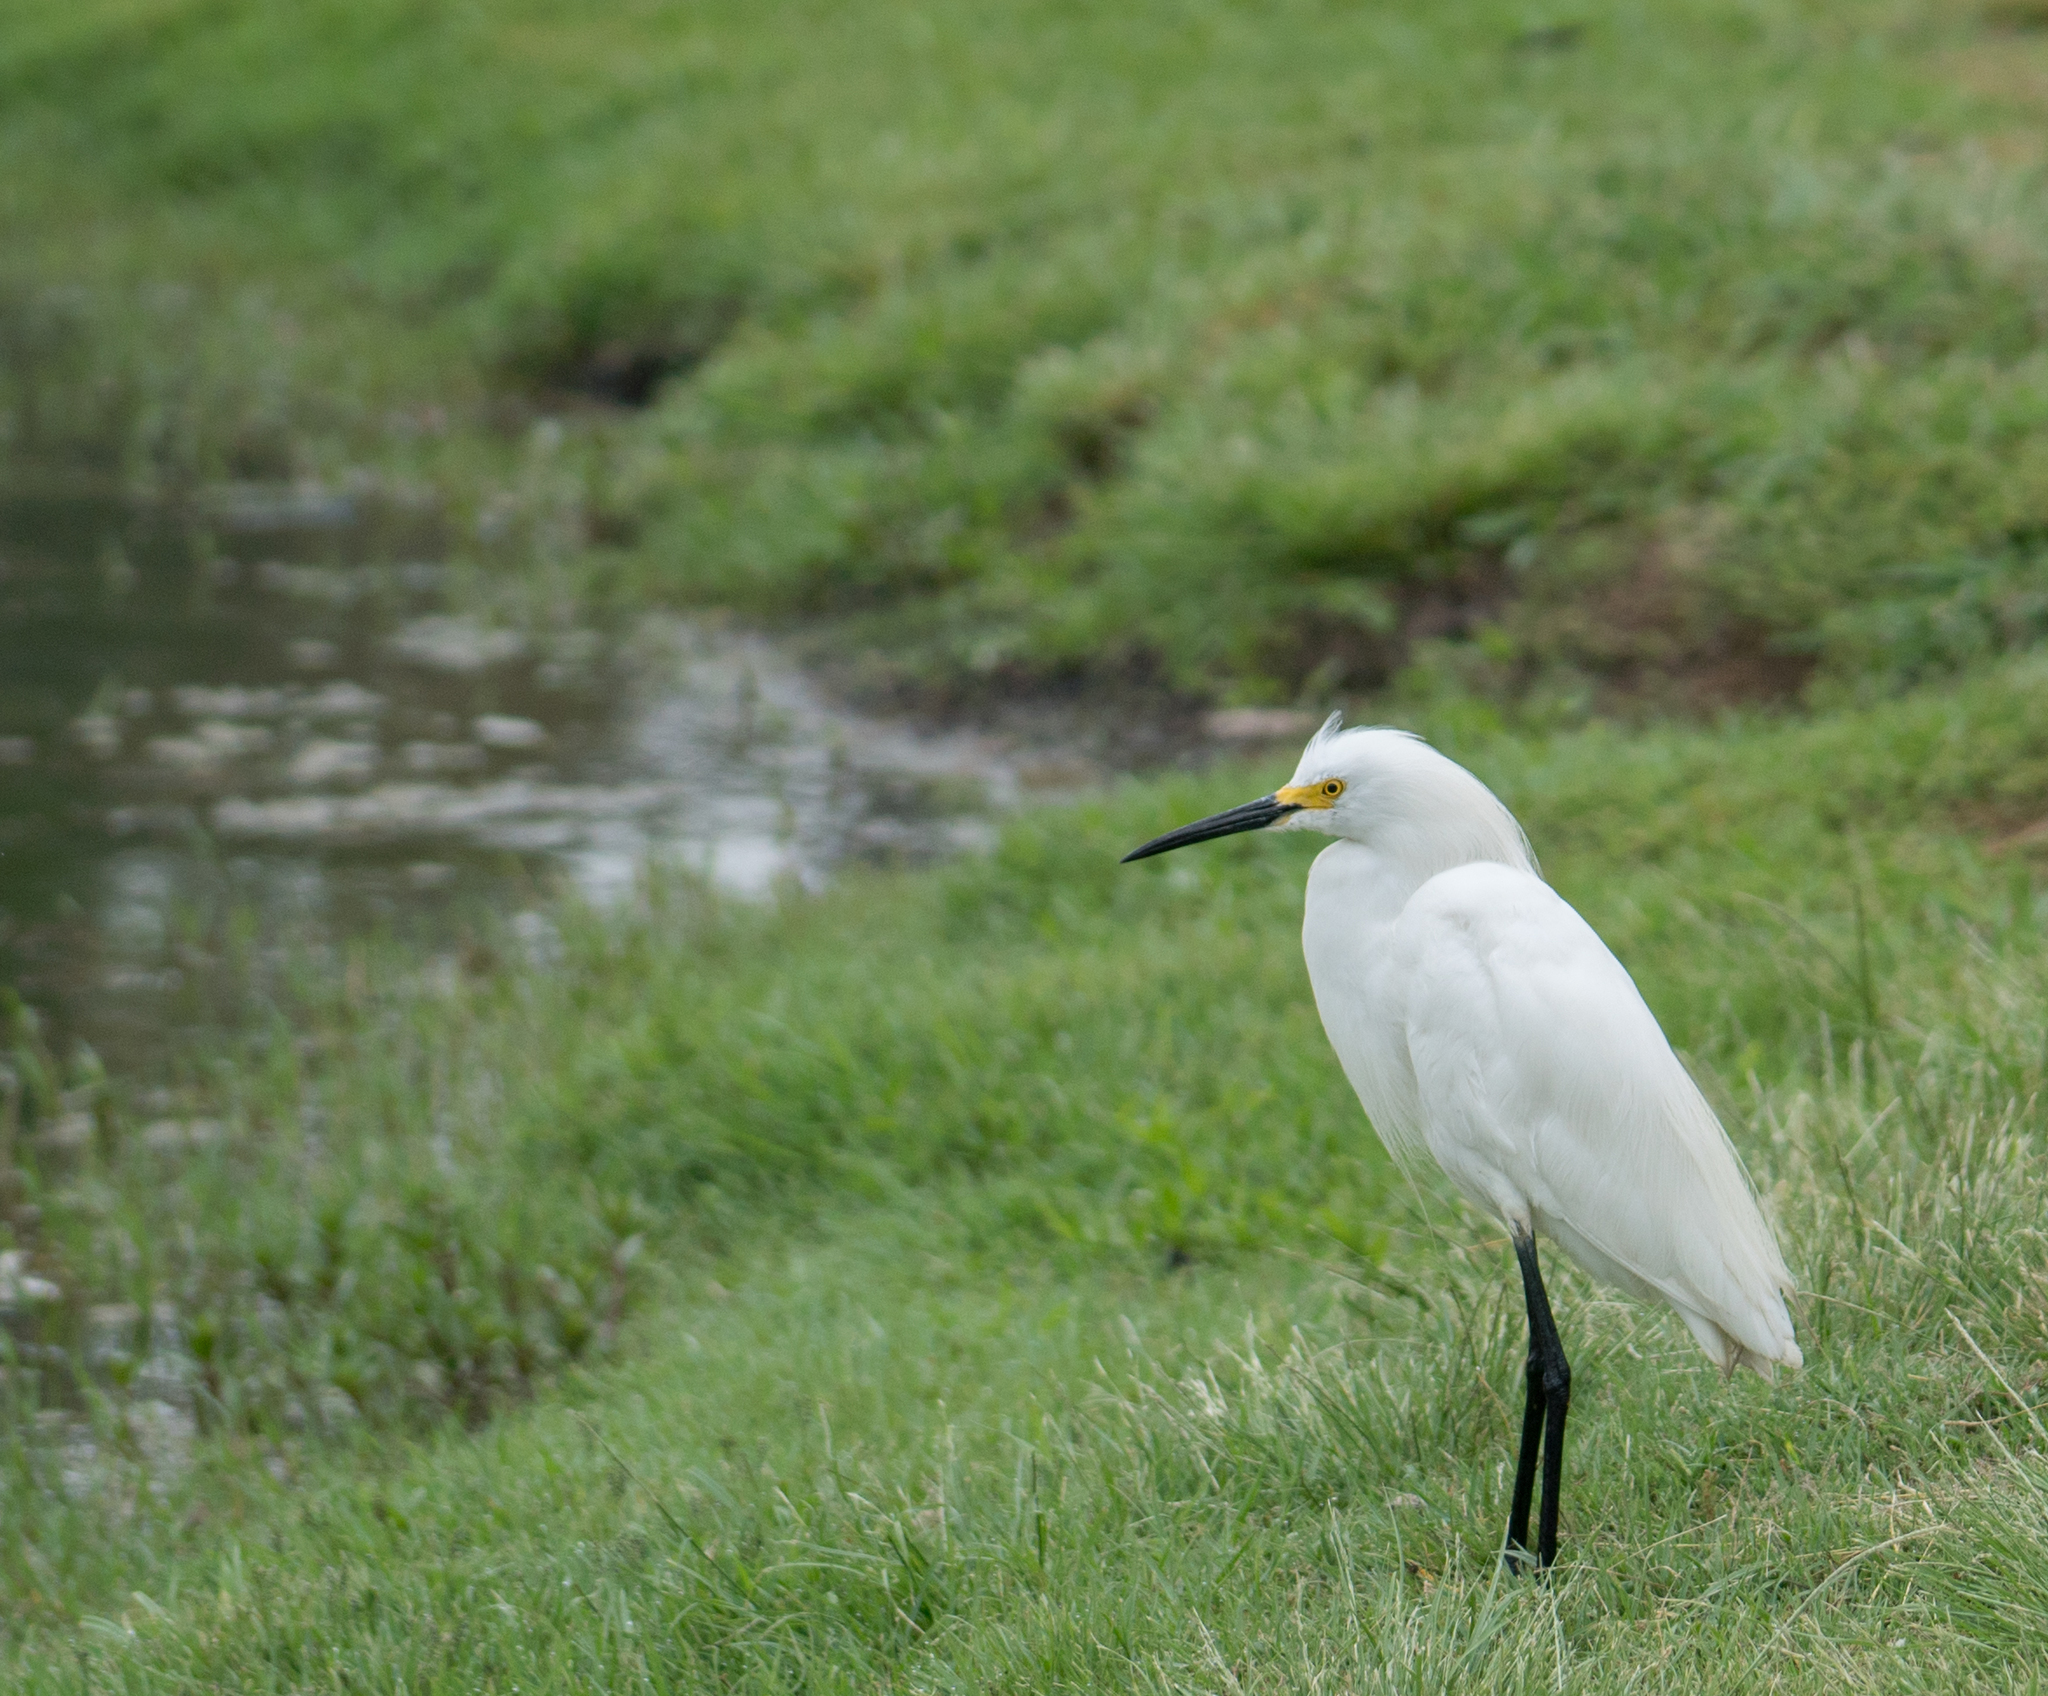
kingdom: Animalia
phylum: Chordata
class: Aves
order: Pelecaniformes
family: Ardeidae
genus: Egretta
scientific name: Egretta thula
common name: Snowy egret
